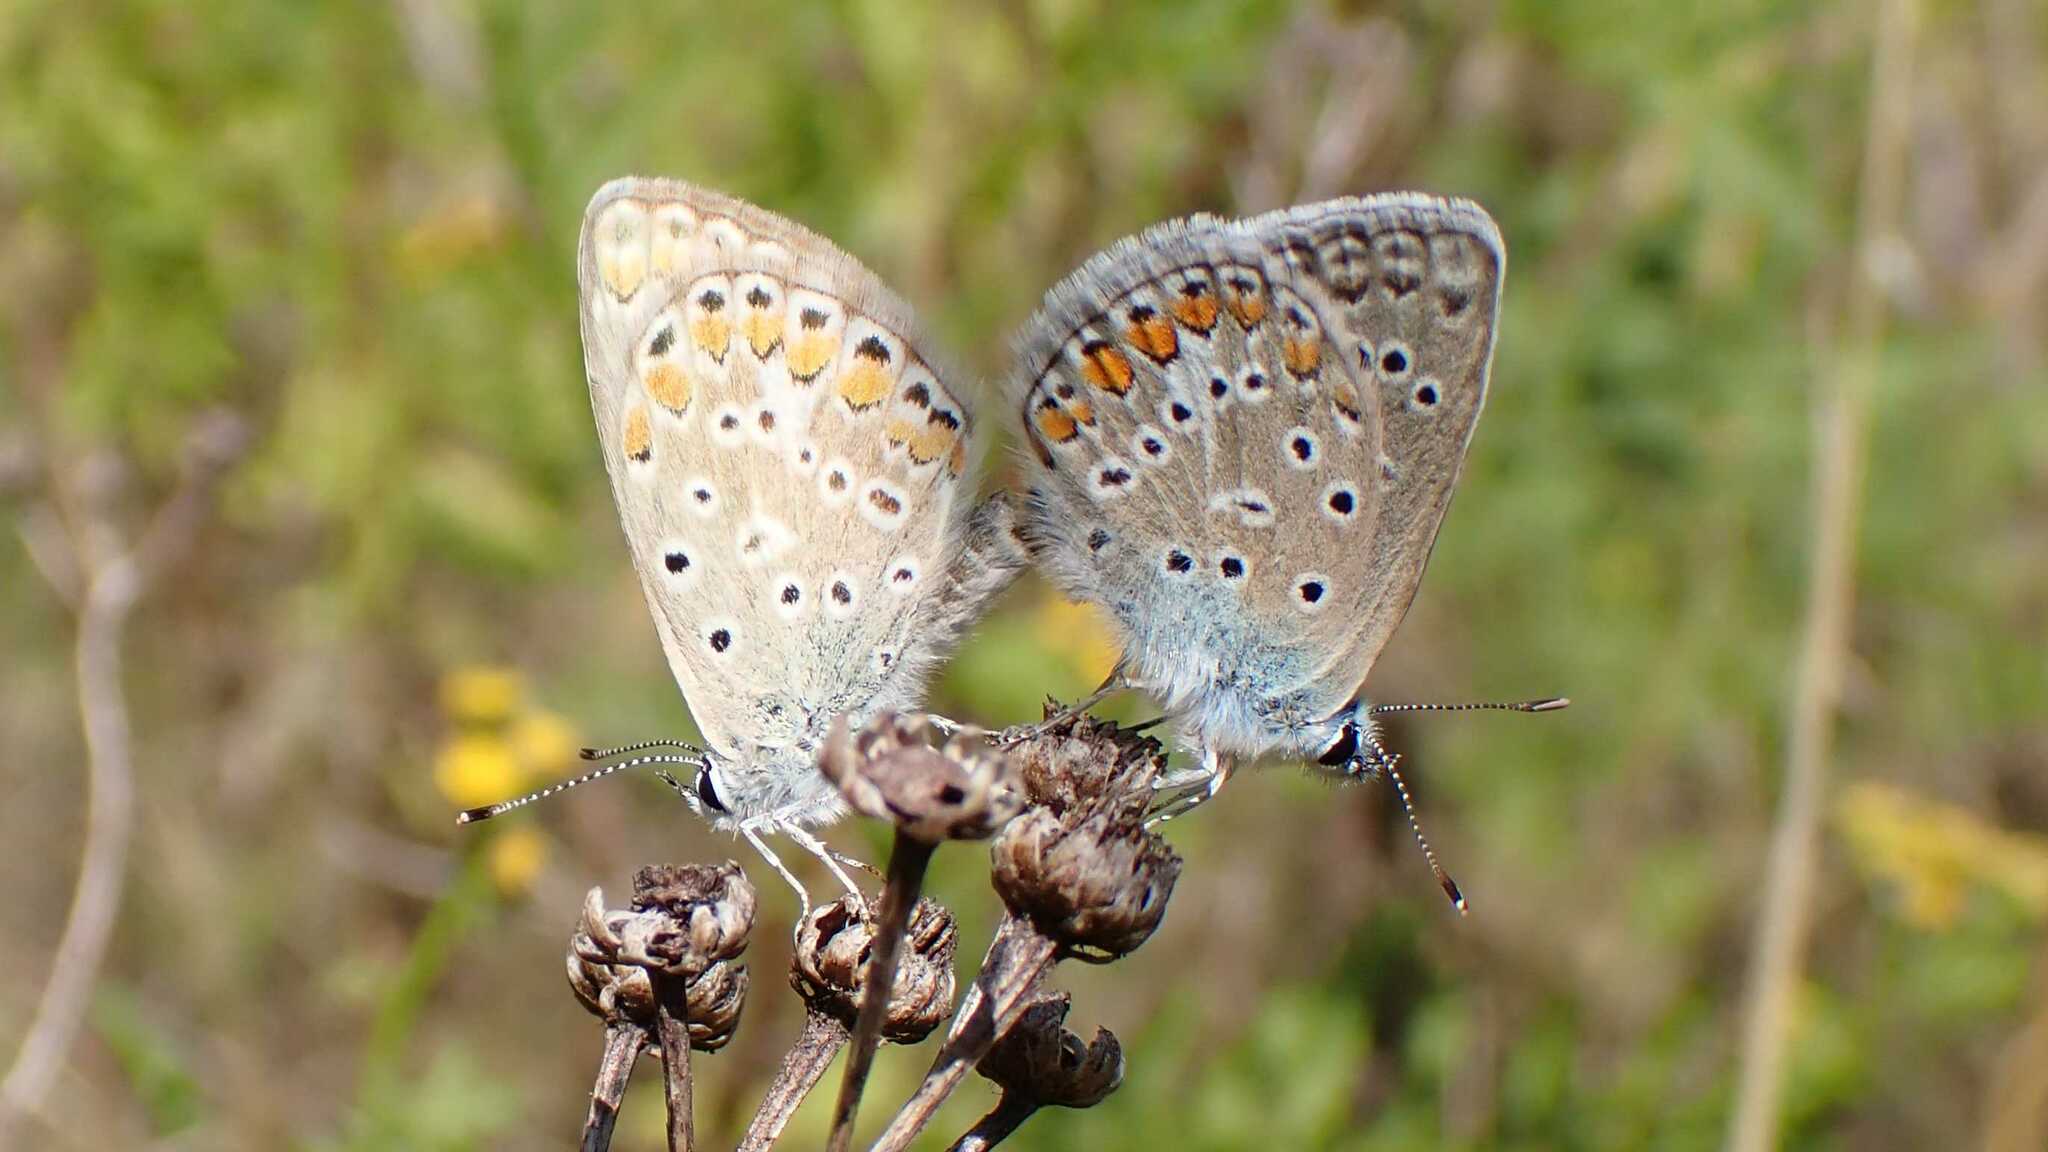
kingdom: Animalia
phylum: Arthropoda
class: Insecta
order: Lepidoptera
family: Lycaenidae
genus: Polyommatus
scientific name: Polyommatus icarus
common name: Common blue
